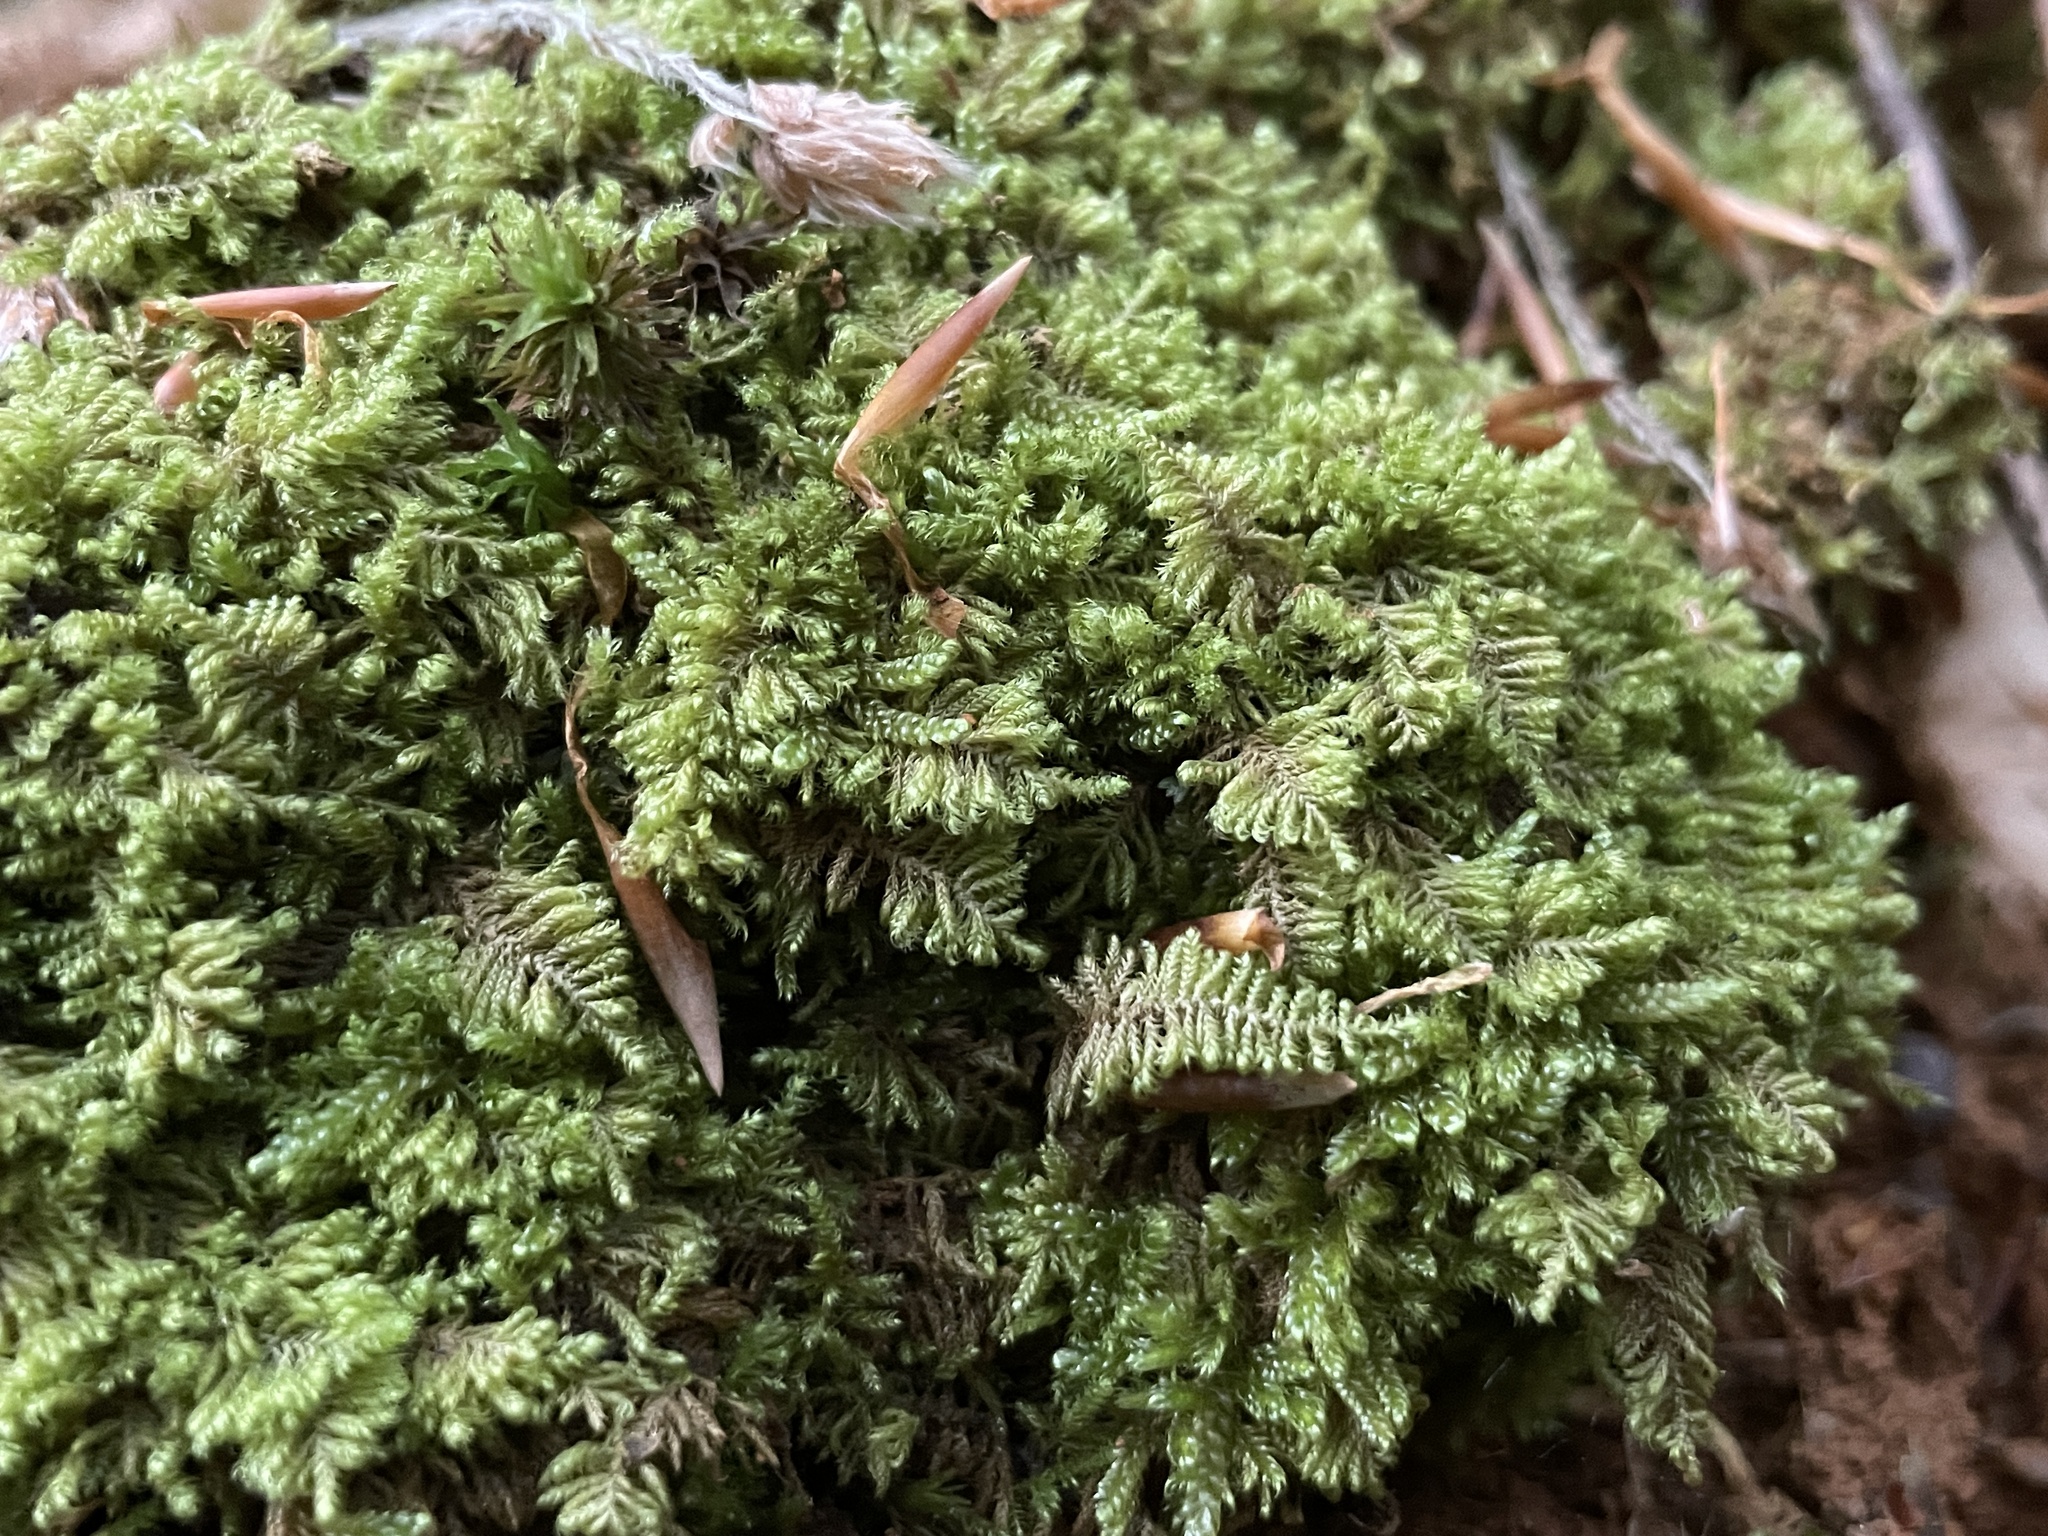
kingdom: Plantae
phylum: Bryophyta
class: Bryopsida
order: Hypnales
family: Myuriaceae
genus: Ctenidium
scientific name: Ctenidium molluscum
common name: Chalk comb-moss
